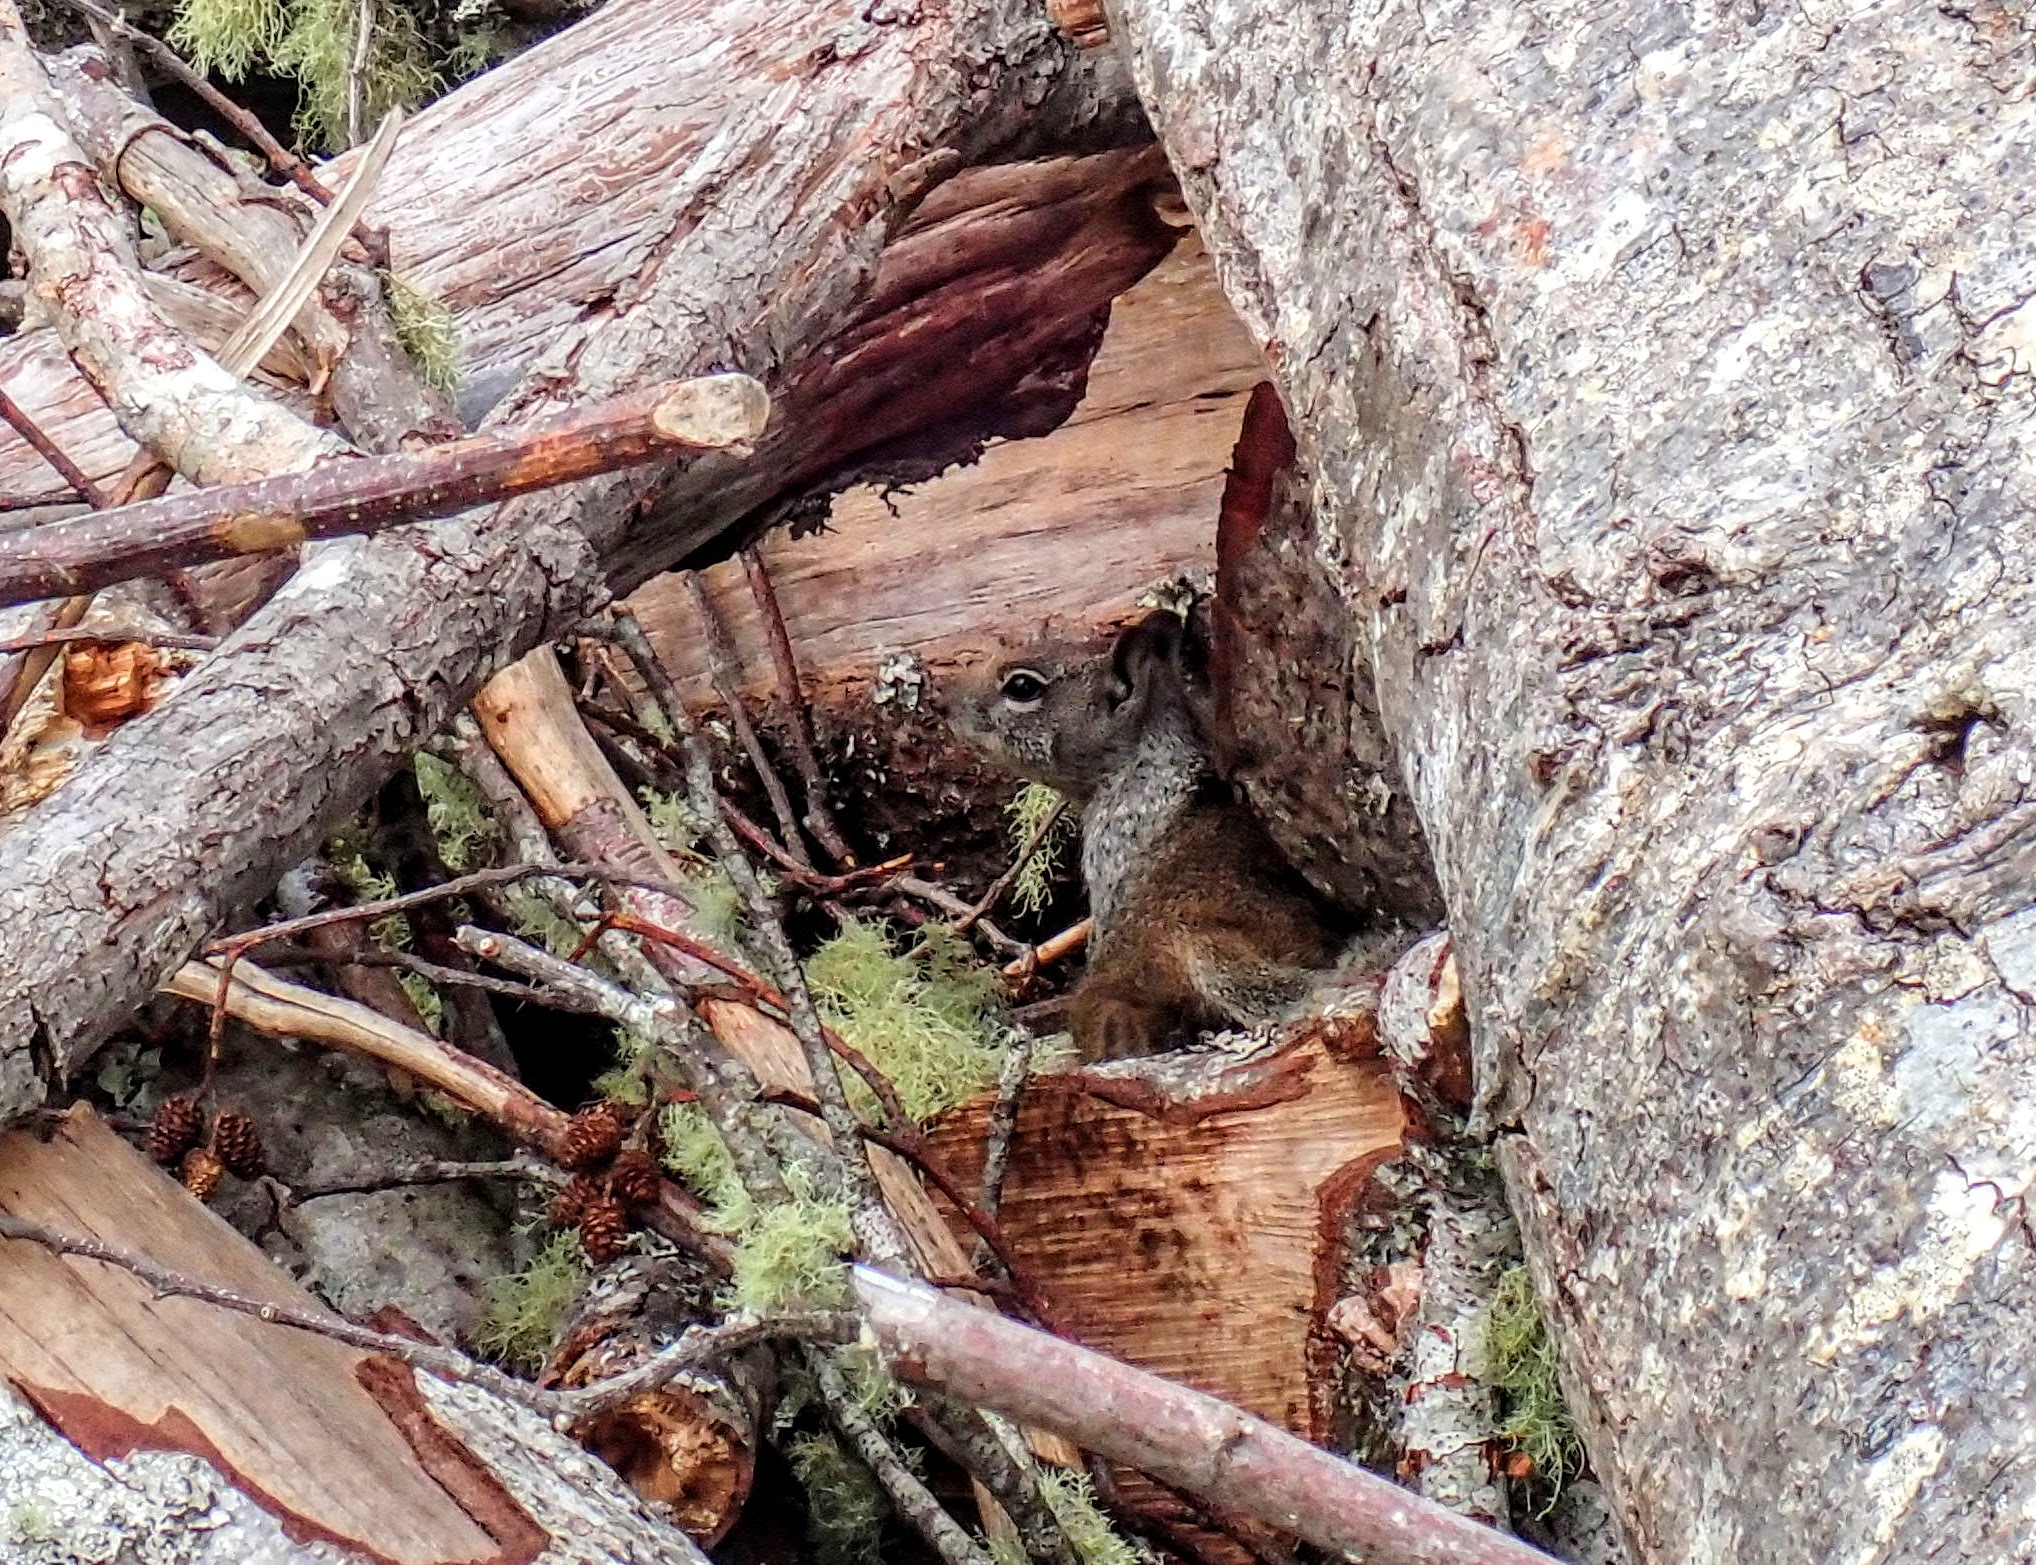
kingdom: Animalia
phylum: Chordata
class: Mammalia
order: Rodentia
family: Sciuridae
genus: Otospermophilus
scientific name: Otospermophilus beecheyi
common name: California ground squirrel
